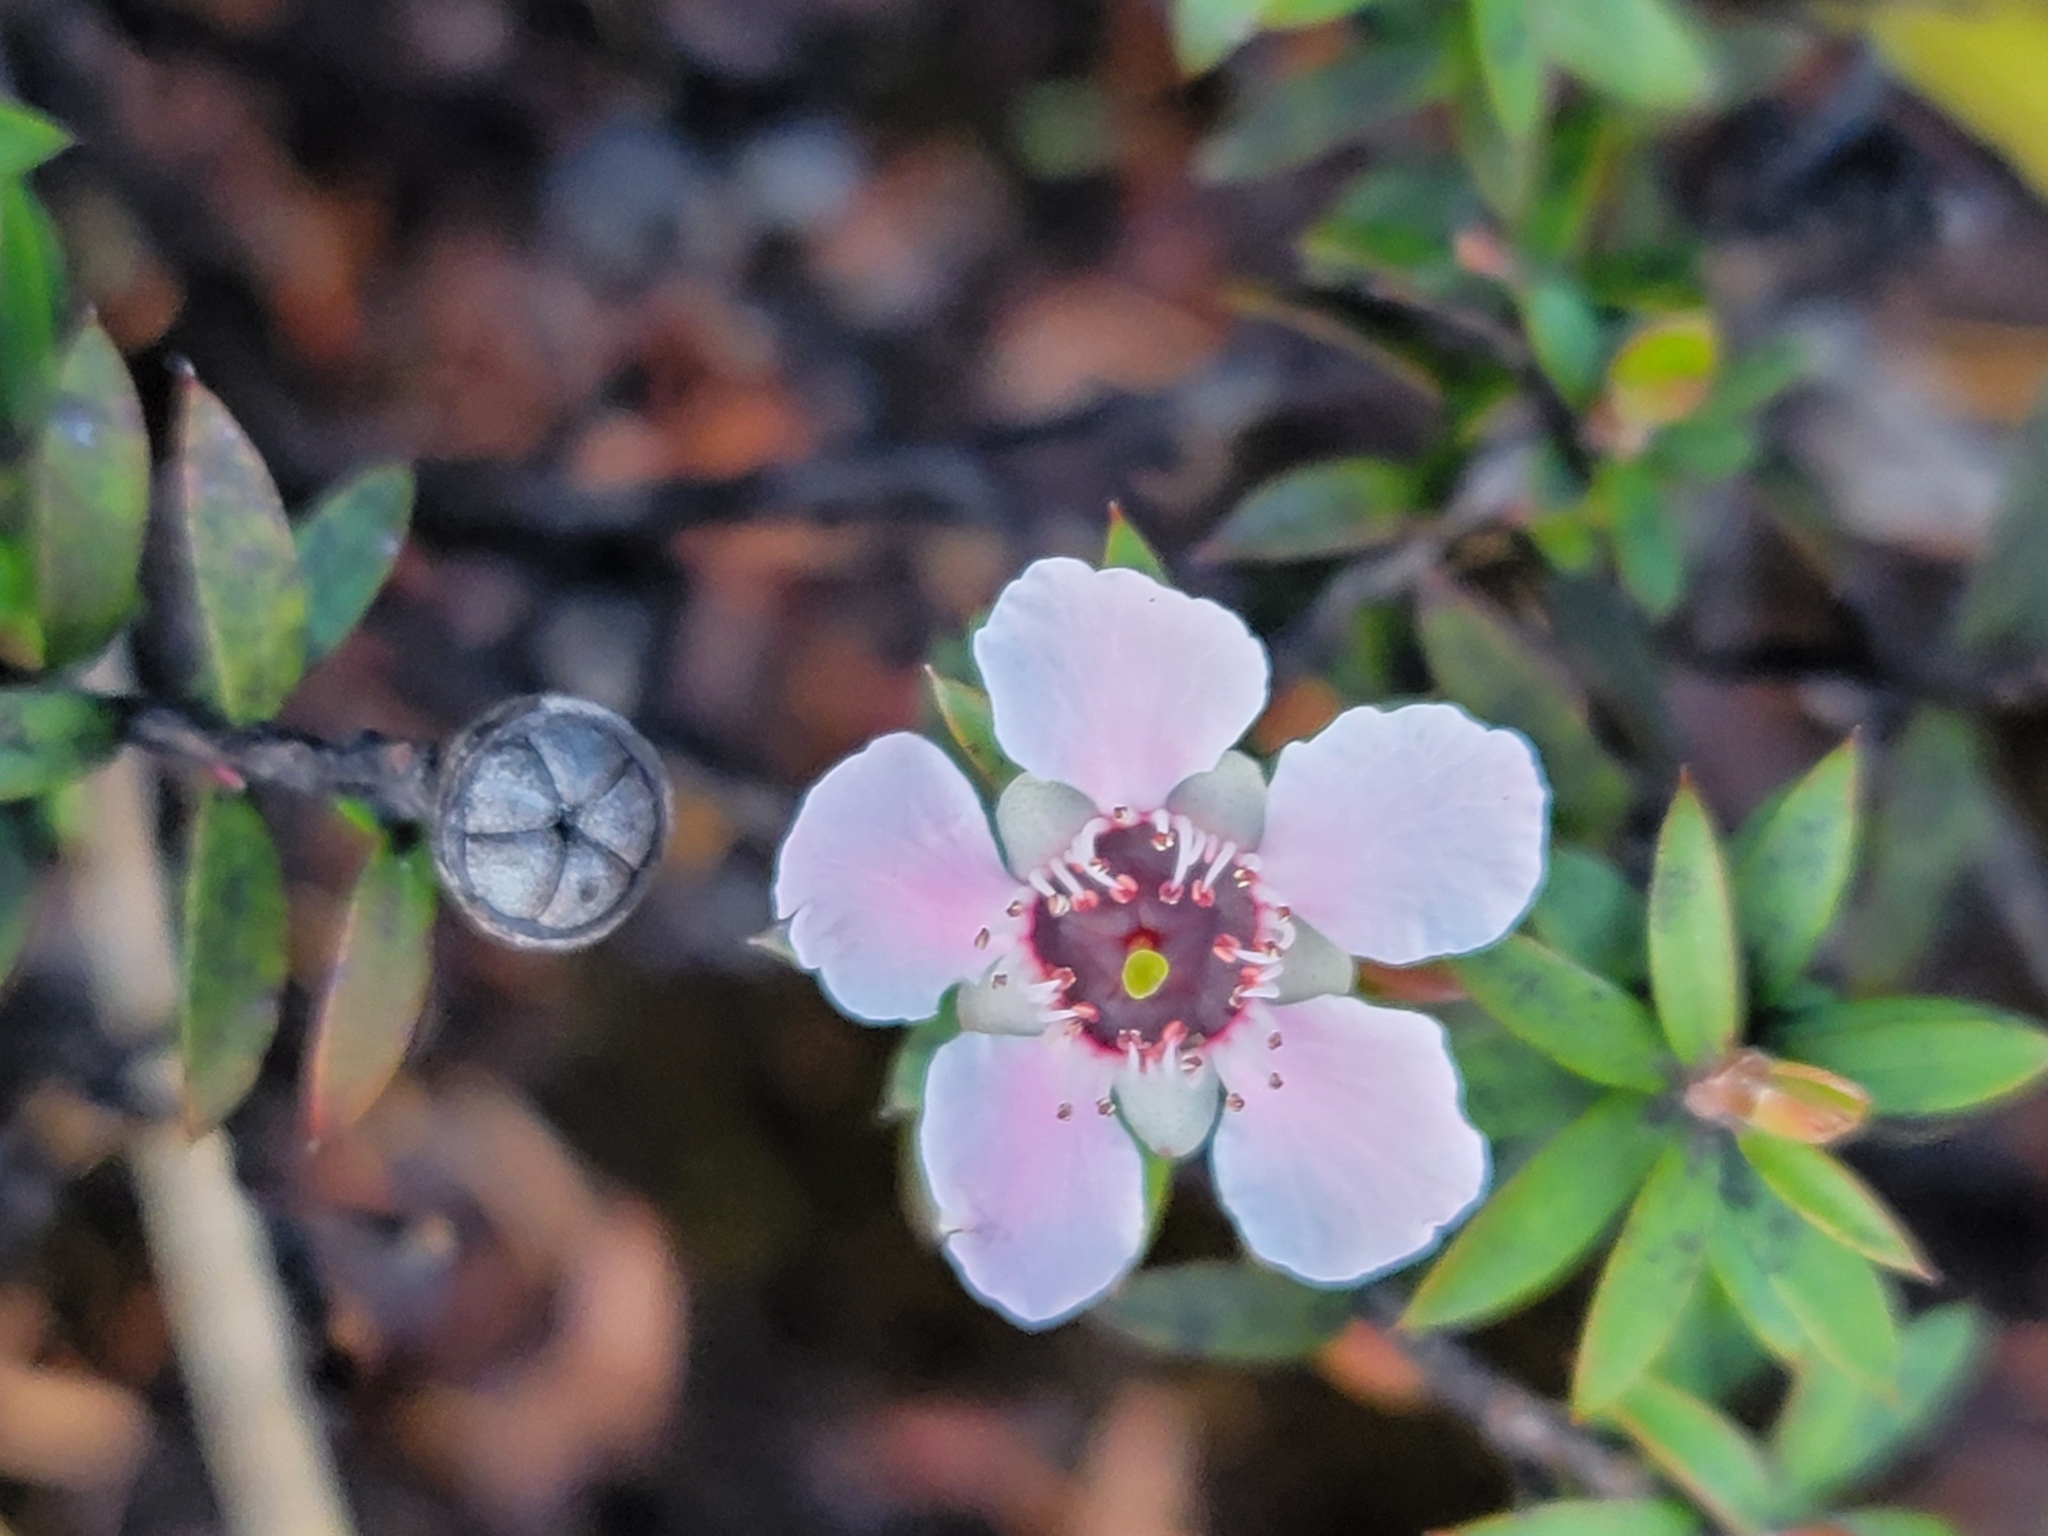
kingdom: Plantae
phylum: Tracheophyta
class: Magnoliopsida
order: Myrtales
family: Myrtaceae
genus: Leptospermum
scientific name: Leptospermum scoparium
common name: Broom tea-tree
